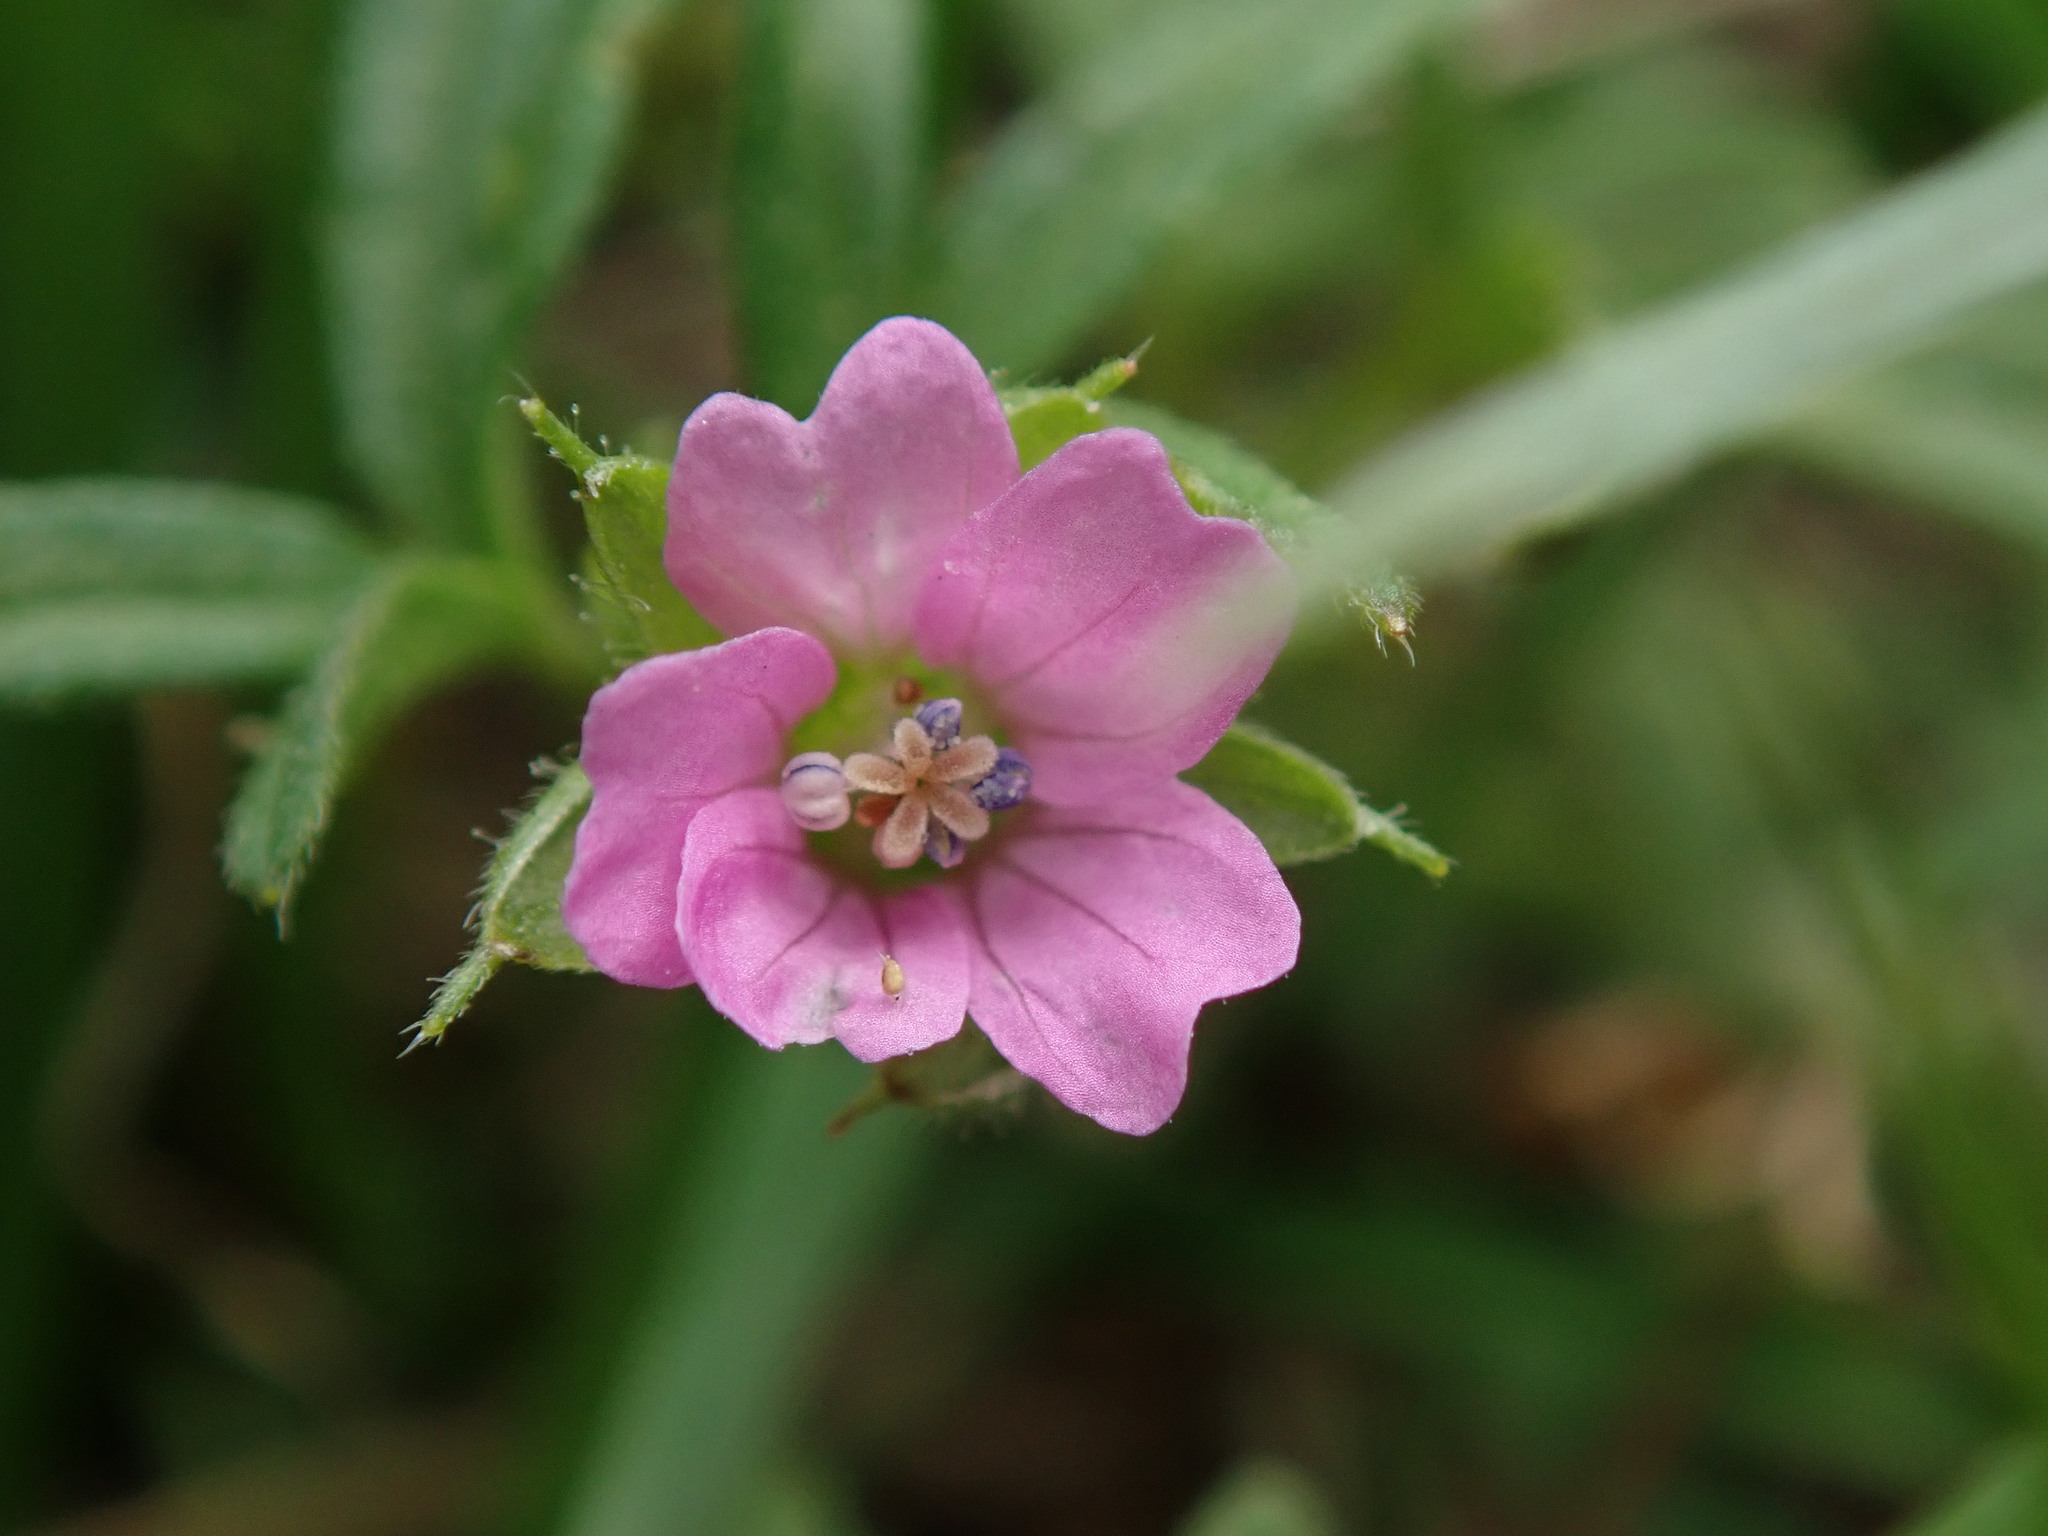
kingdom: Plantae
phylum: Tracheophyta
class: Magnoliopsida
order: Geraniales
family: Geraniaceae
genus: Geranium
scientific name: Geranium dissectum
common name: Cut-leaved crane's-bill
